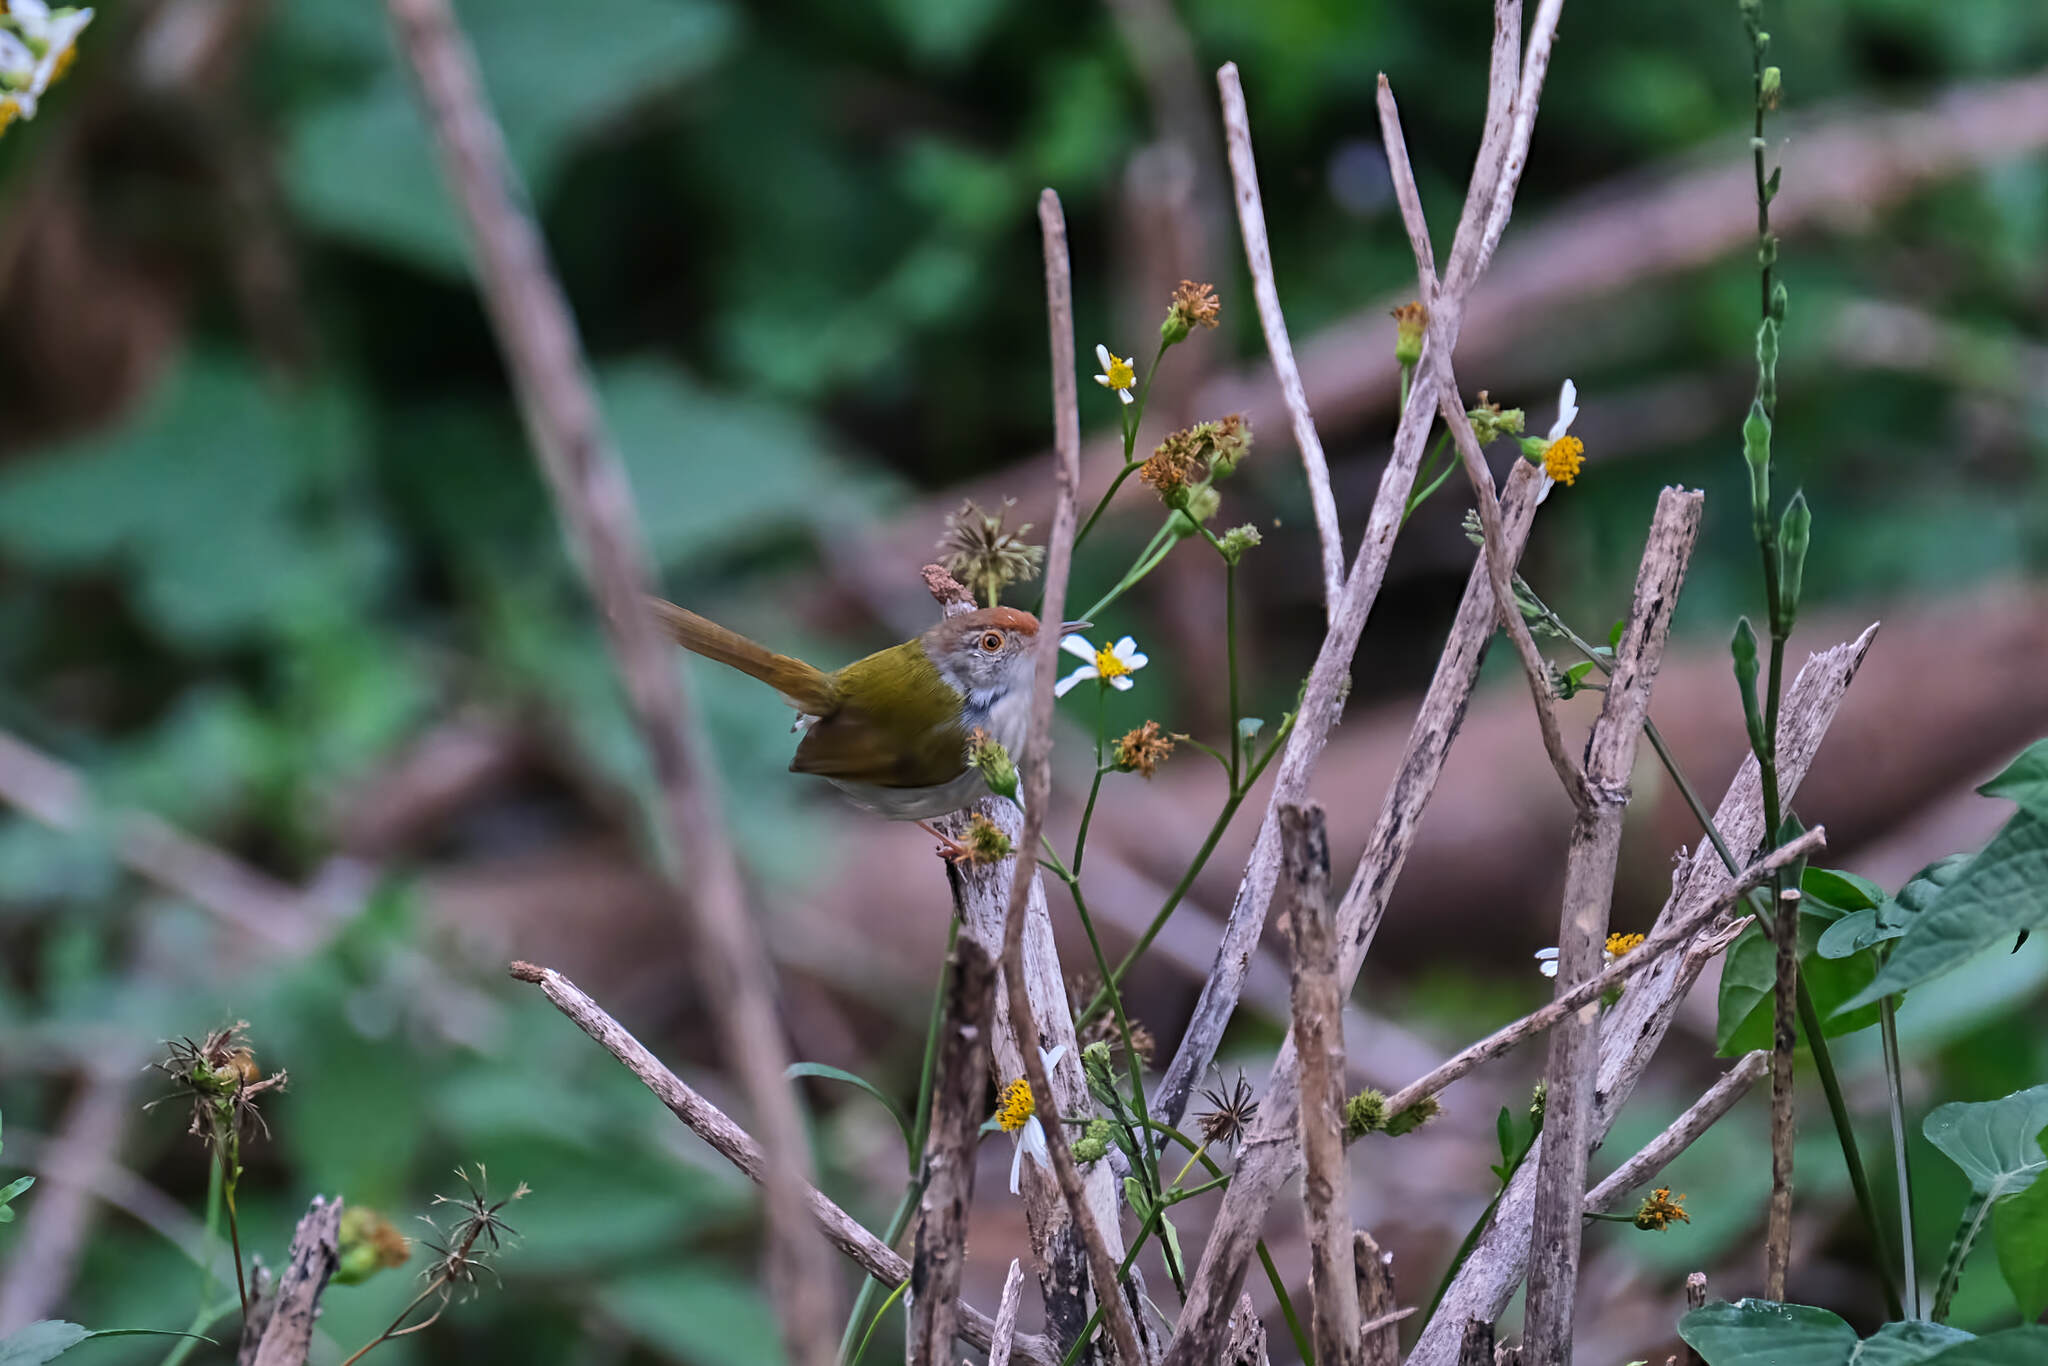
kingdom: Animalia
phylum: Chordata
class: Aves
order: Passeriformes
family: Cisticolidae
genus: Orthotomus
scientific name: Orthotomus sutorius
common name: Common tailorbird
